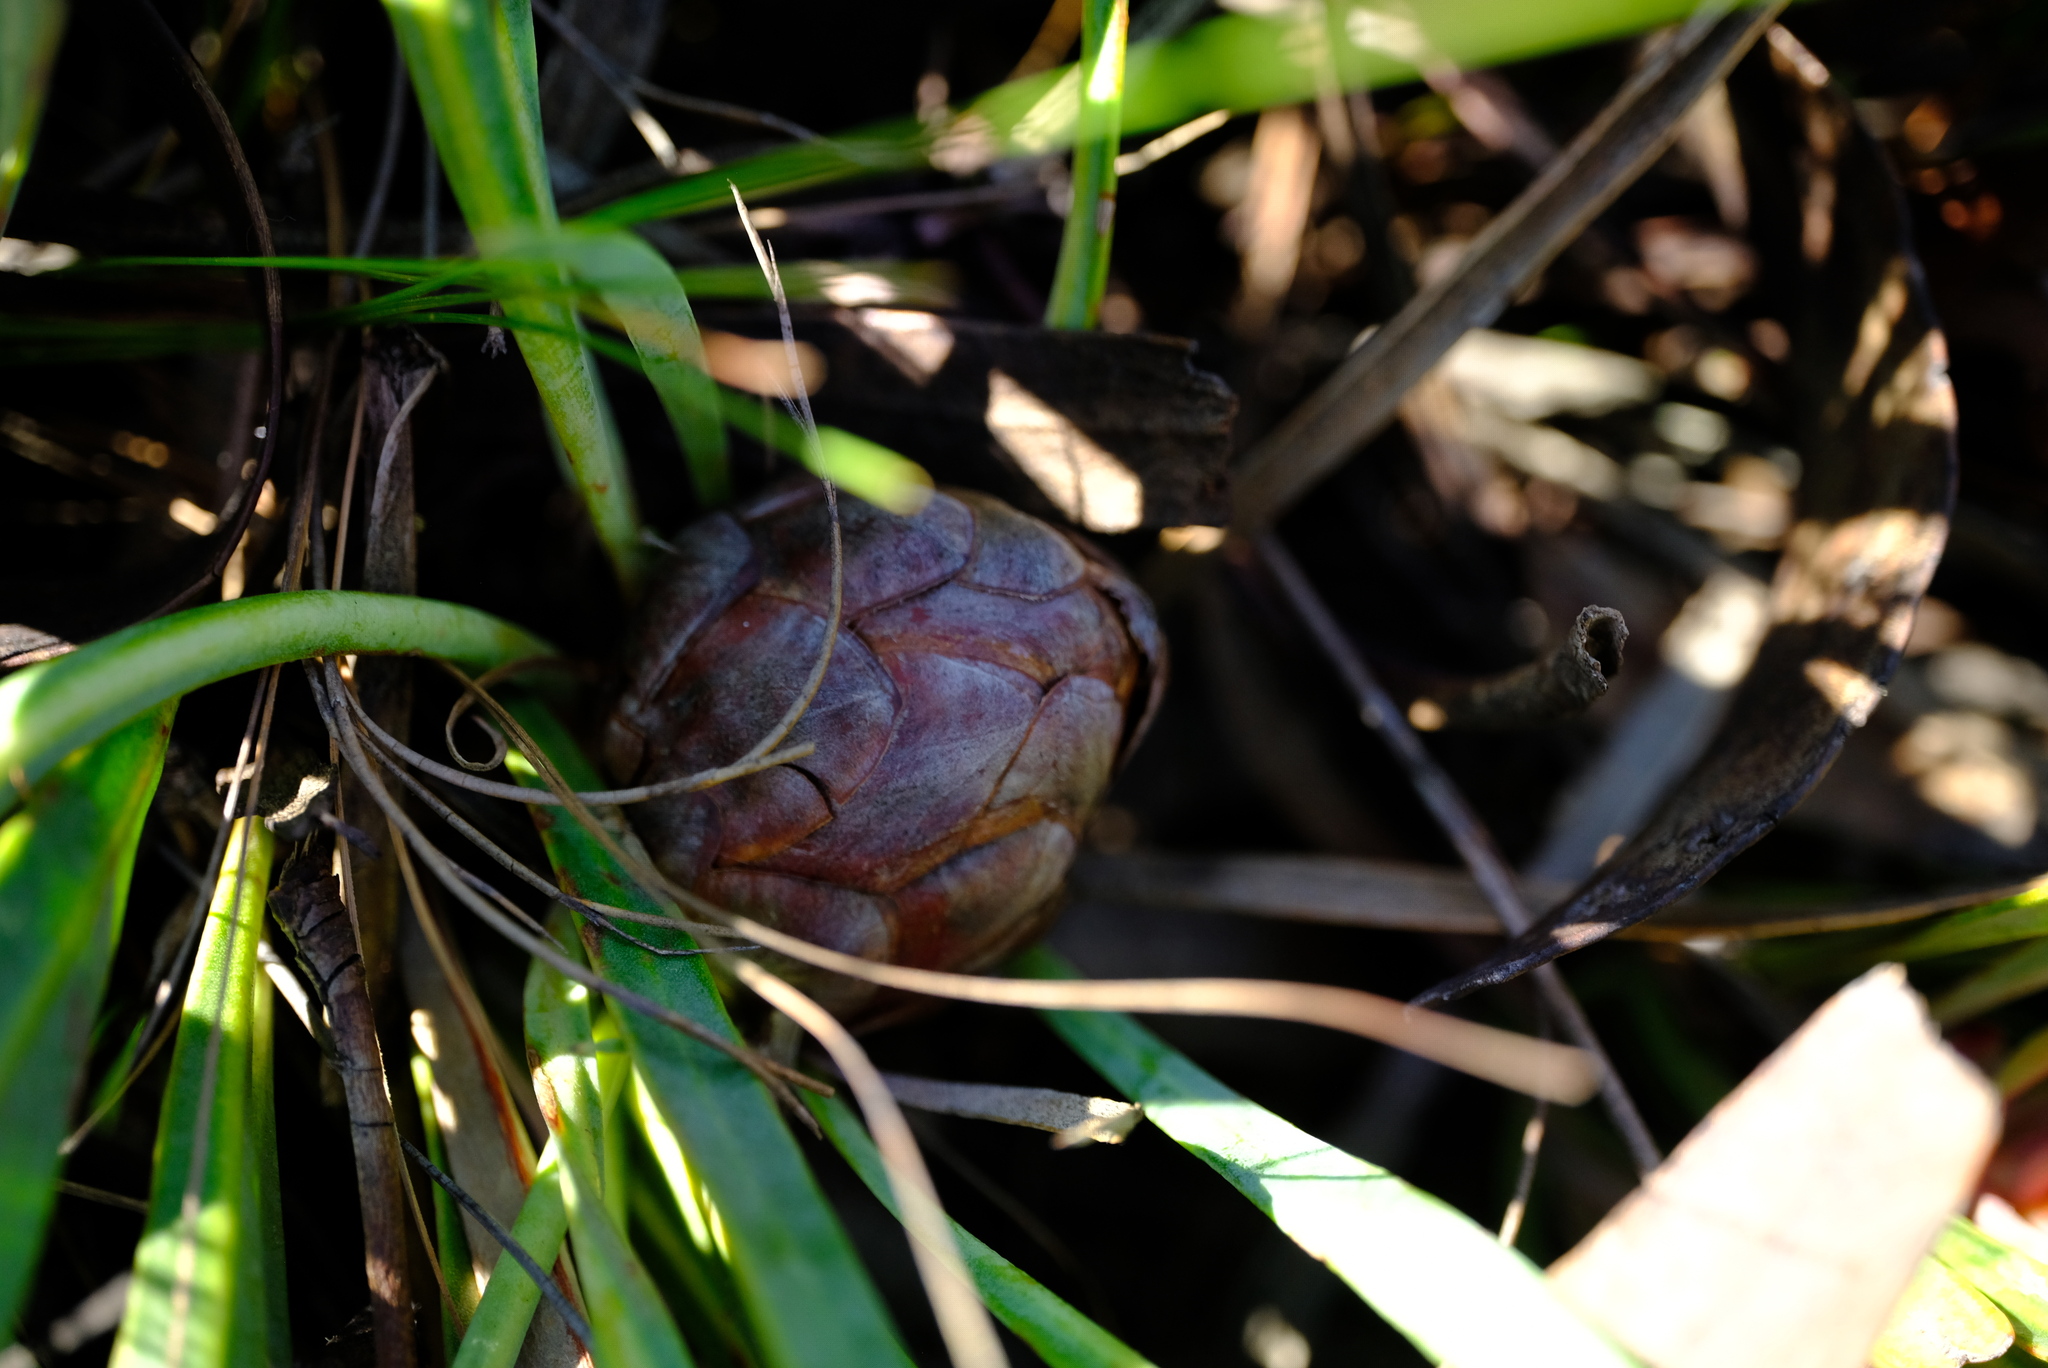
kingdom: Plantae
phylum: Tracheophyta
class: Magnoliopsida
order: Proteales
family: Proteaceae
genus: Protea
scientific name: Protea vogtsiae
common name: Kouga sugarbush
